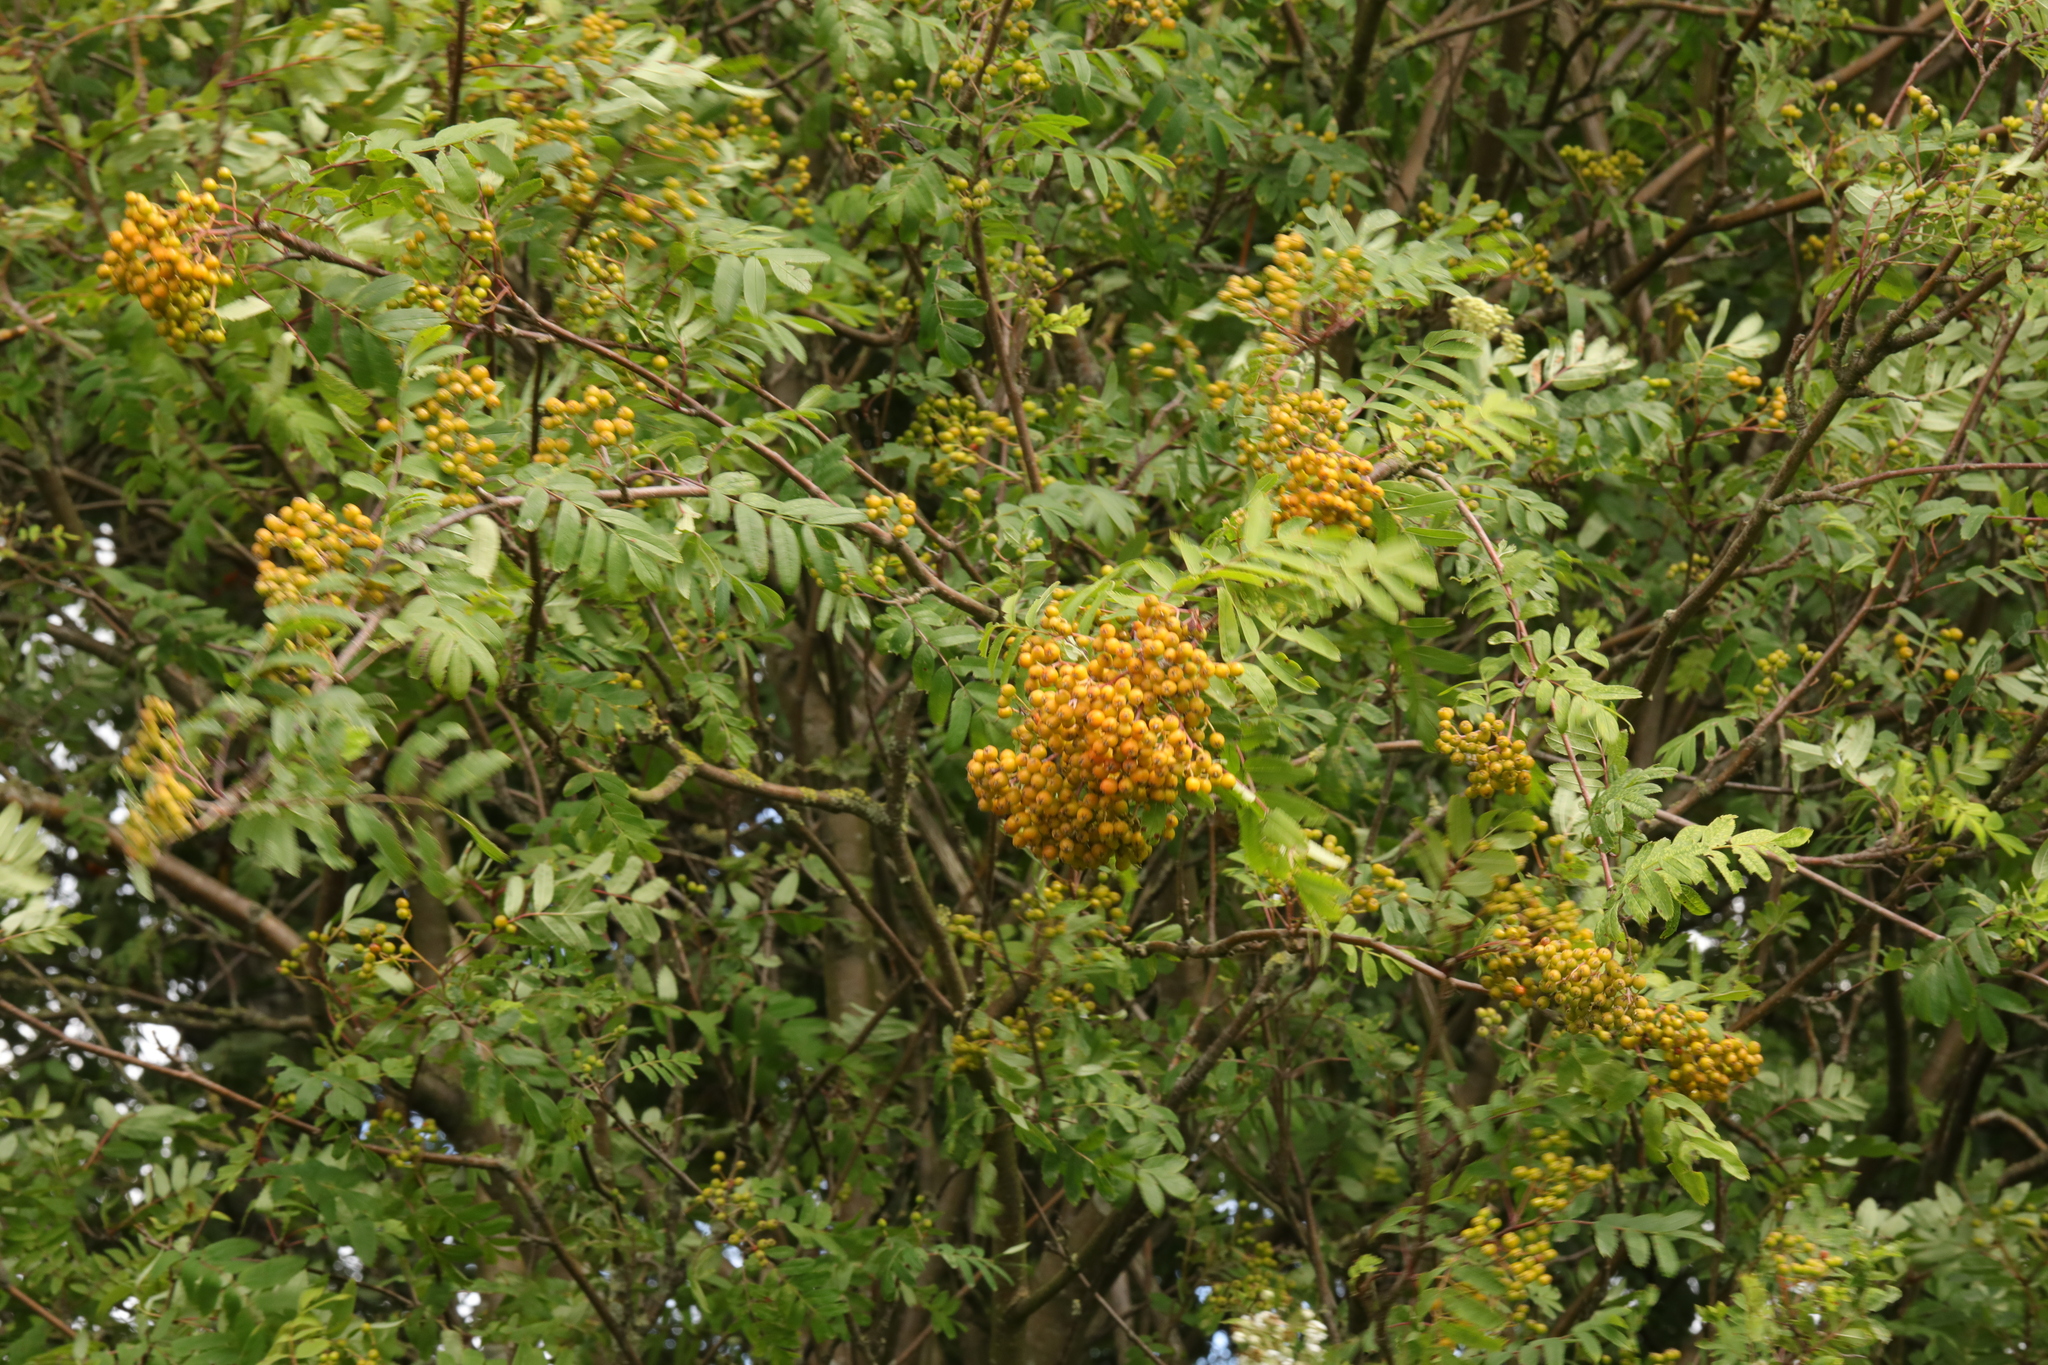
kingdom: Plantae
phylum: Tracheophyta
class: Magnoliopsida
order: Rosales
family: Rosaceae
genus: Sorbus
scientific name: Sorbus aucuparia
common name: Rowan
